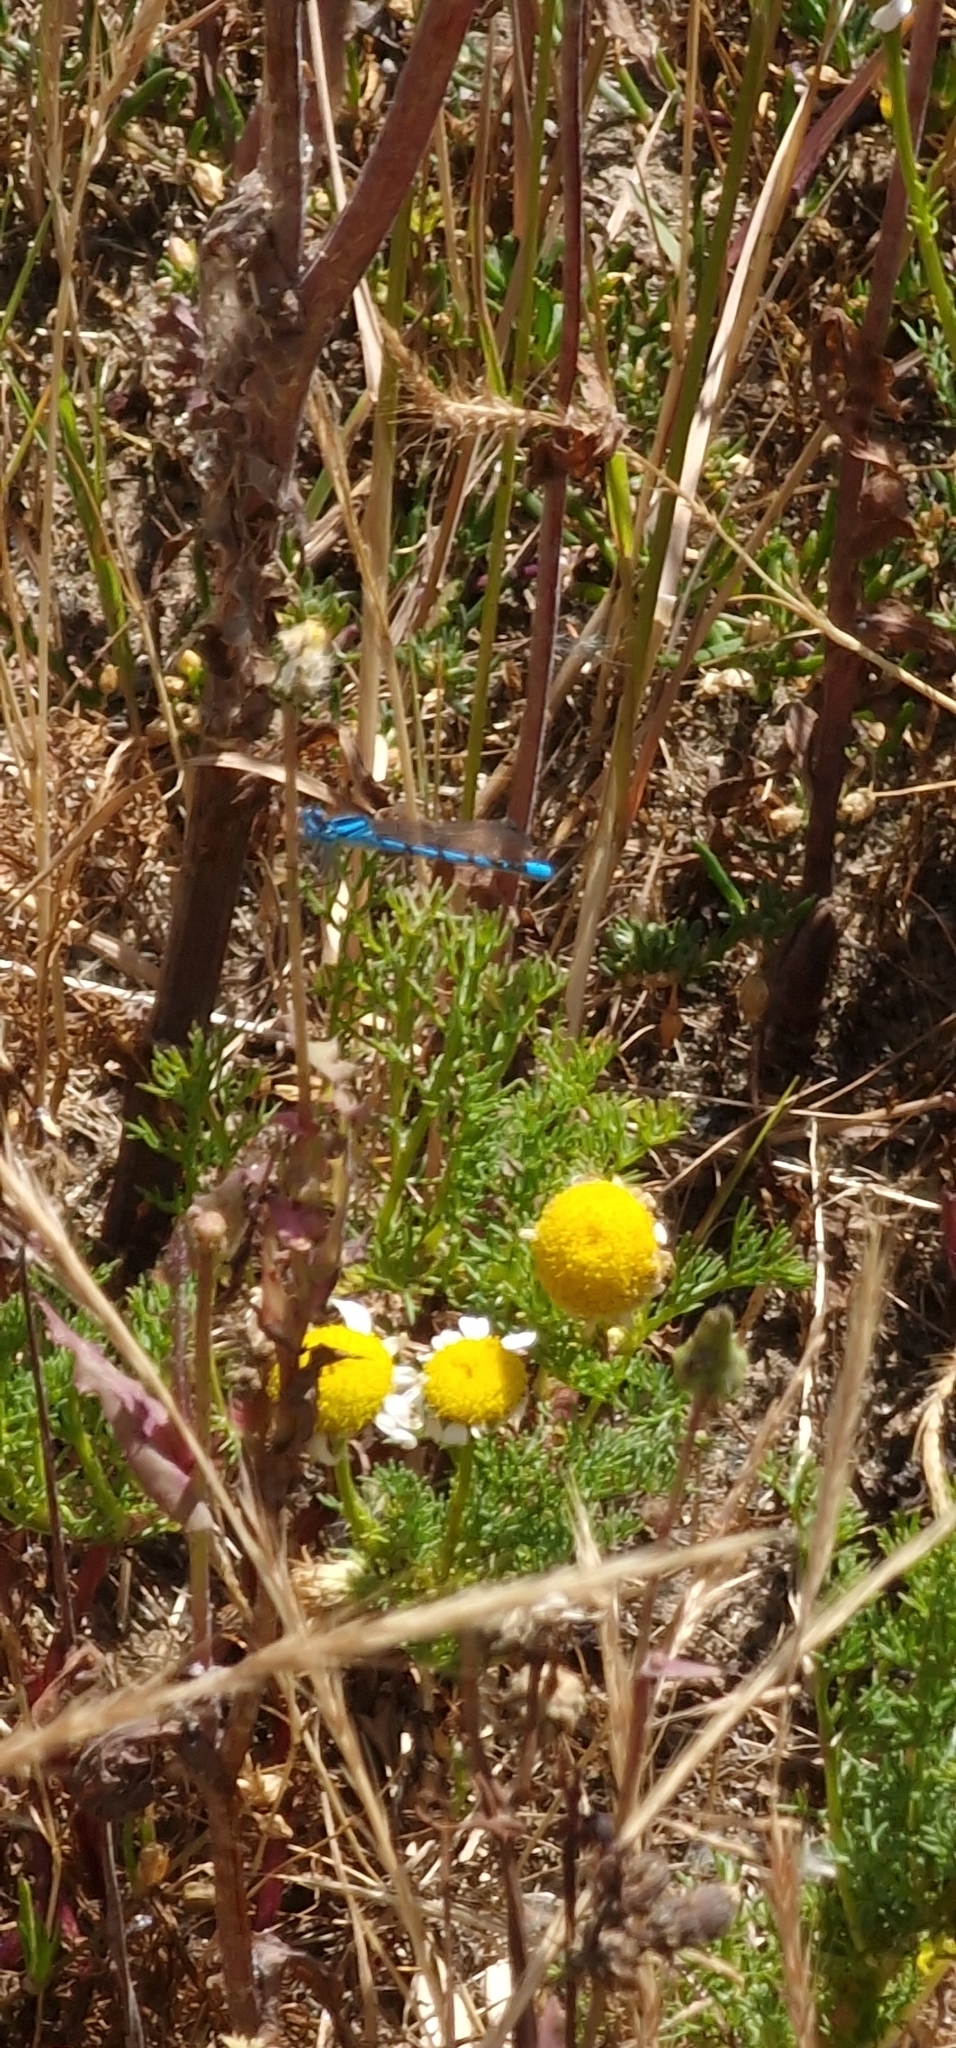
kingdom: Animalia
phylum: Arthropoda
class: Insecta
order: Odonata
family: Coenagrionidae
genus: Enallagma
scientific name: Enallagma cyathigerum
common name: Common blue damselfly
